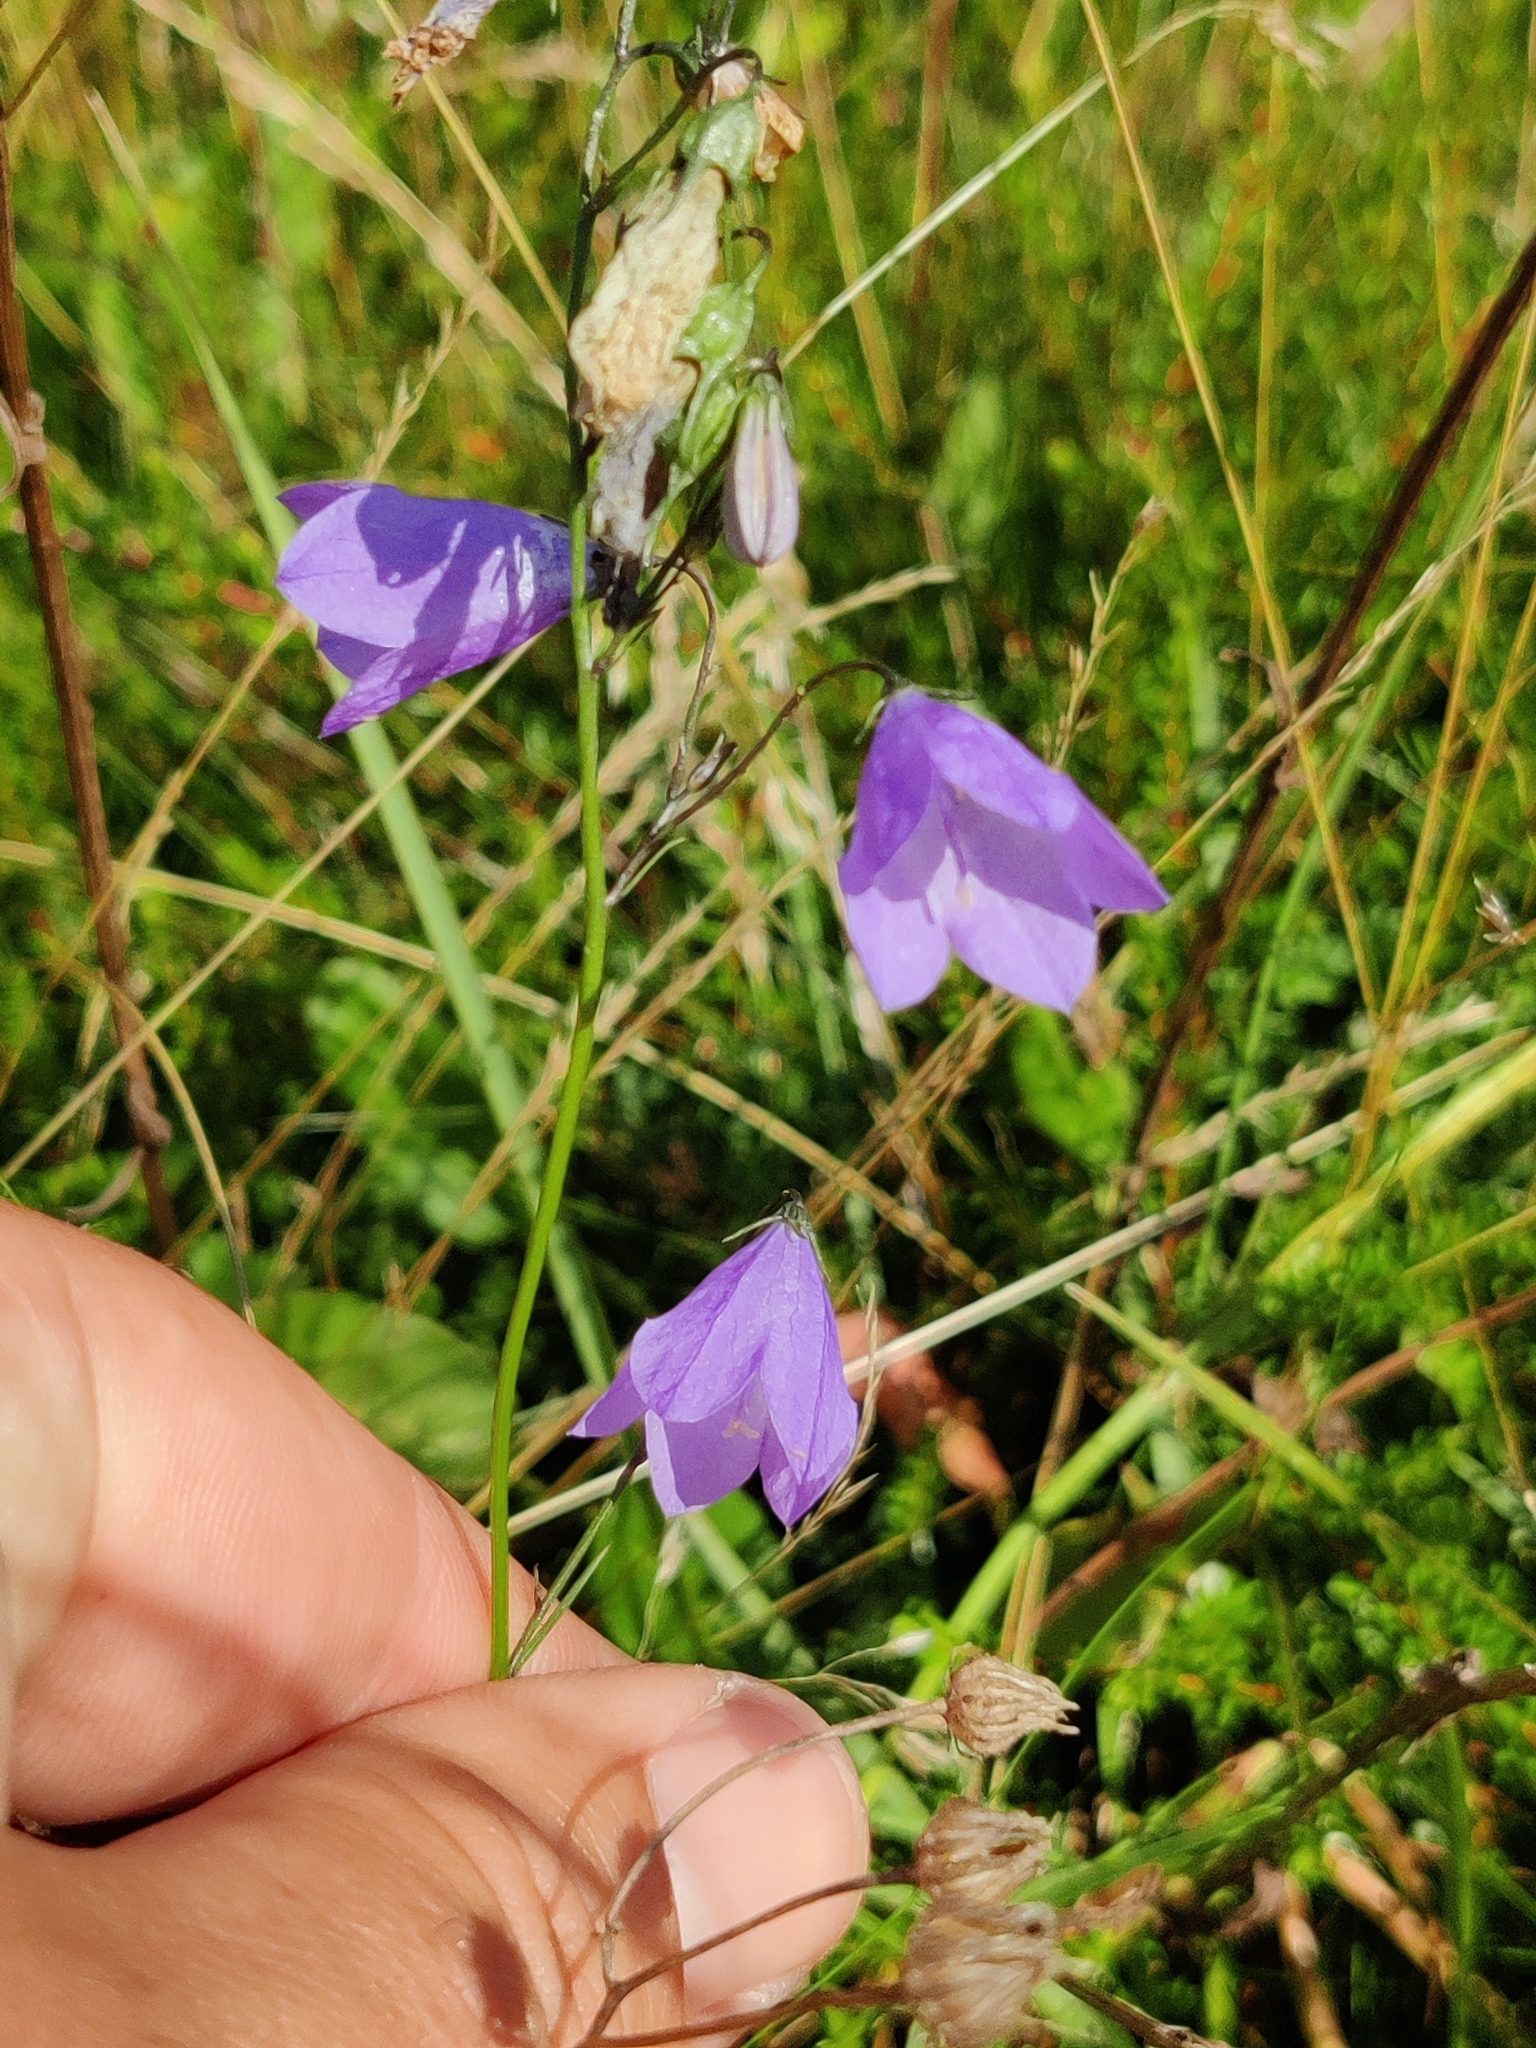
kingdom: Plantae
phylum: Tracheophyta
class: Magnoliopsida
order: Asterales
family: Campanulaceae
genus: Campanula
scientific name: Campanula rotundifolia
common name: Harebell
